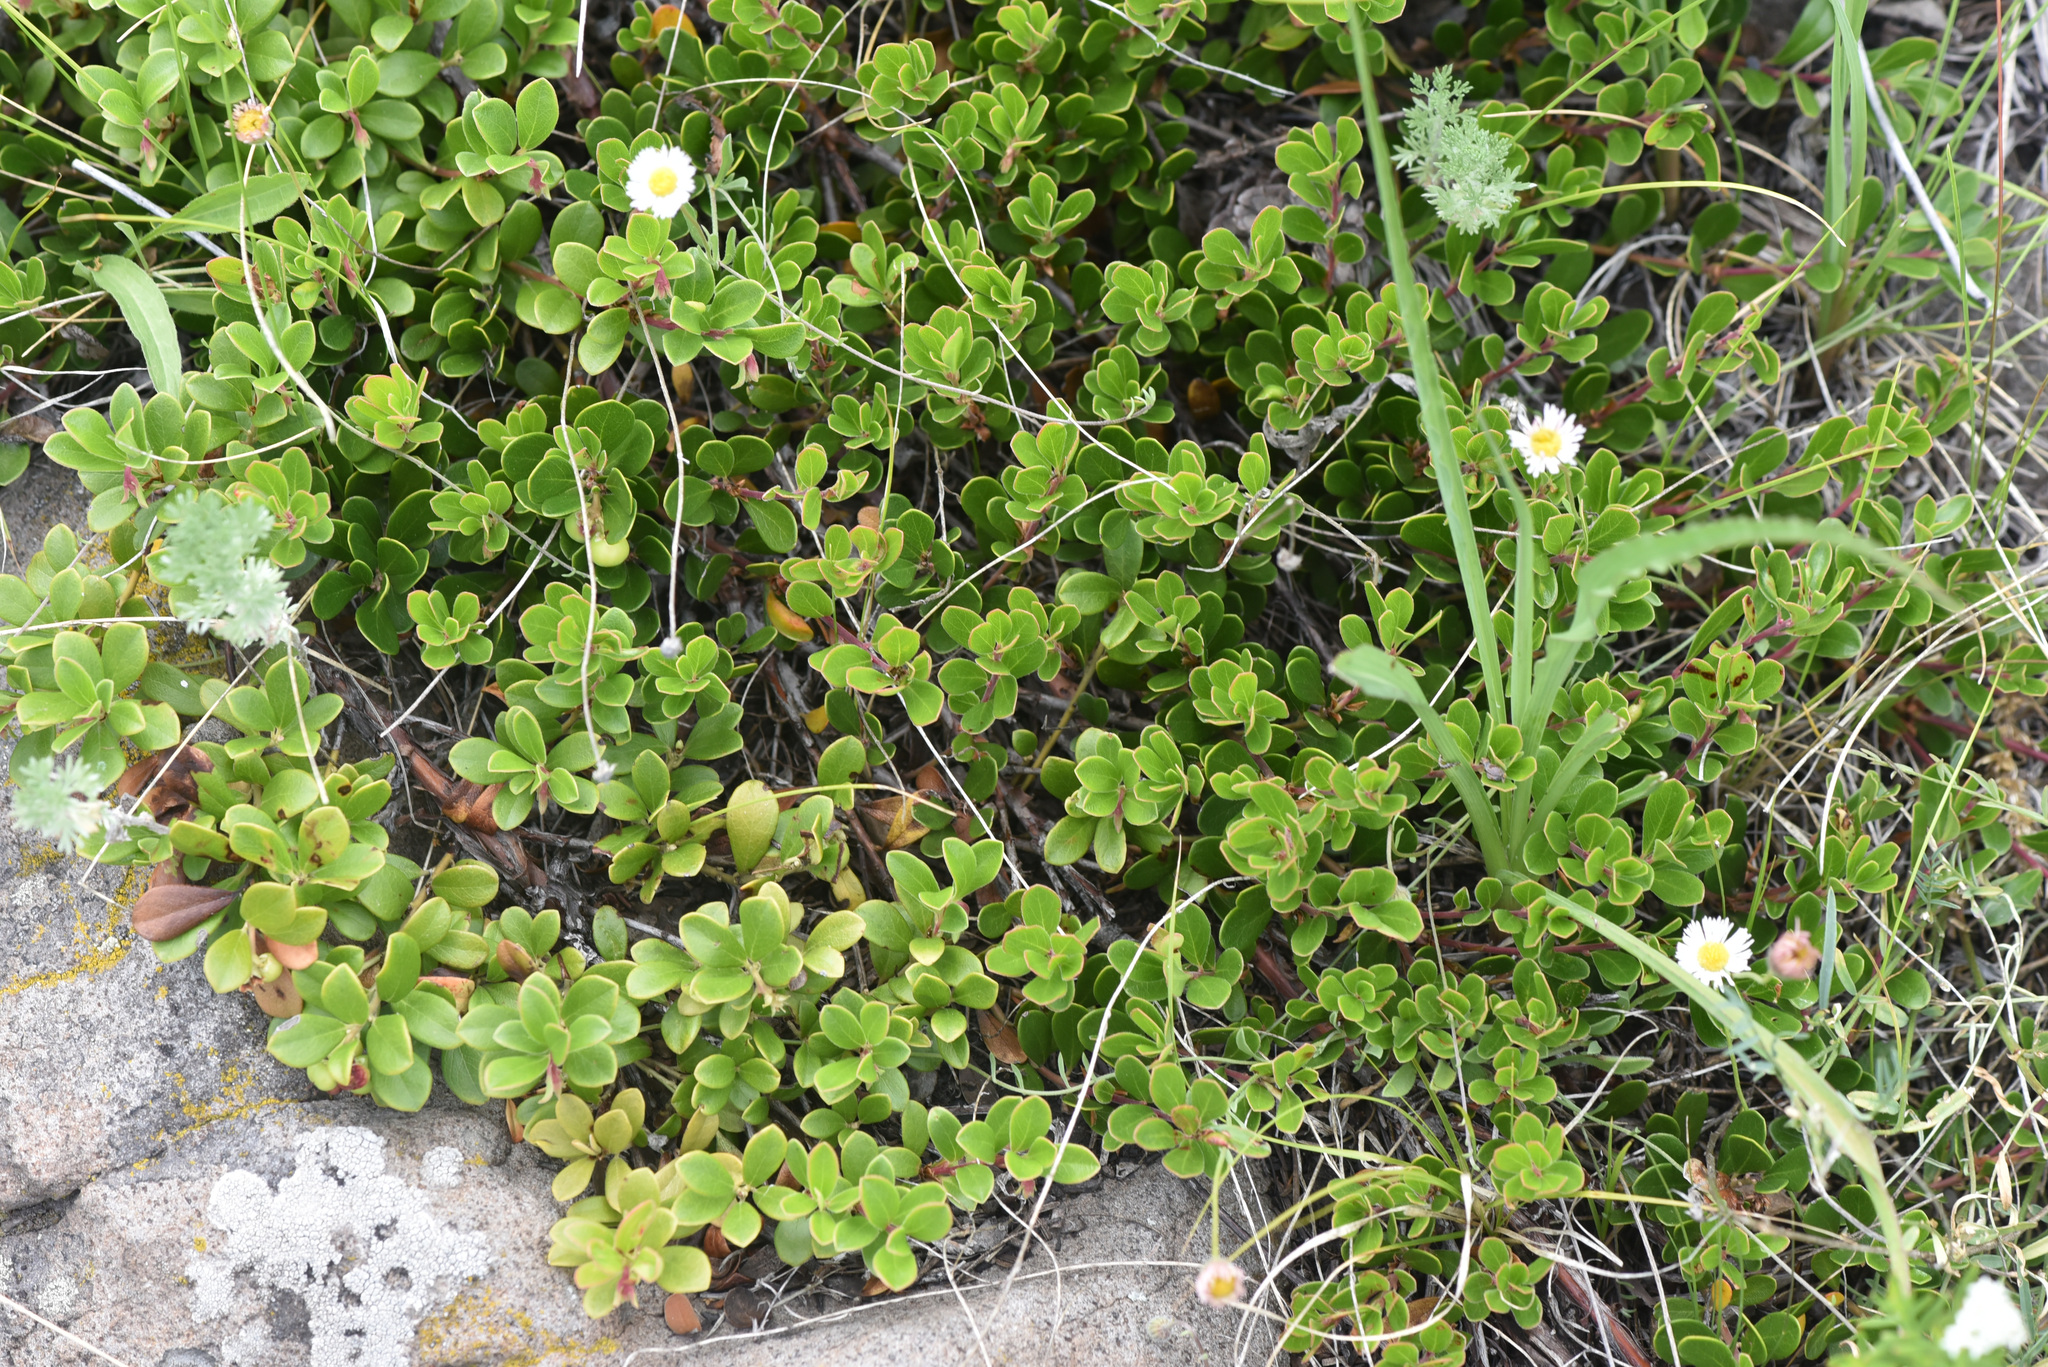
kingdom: Plantae
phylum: Tracheophyta
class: Magnoliopsida
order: Ericales
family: Ericaceae
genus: Arctostaphylos
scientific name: Arctostaphylos uva-ursi
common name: Bearberry
